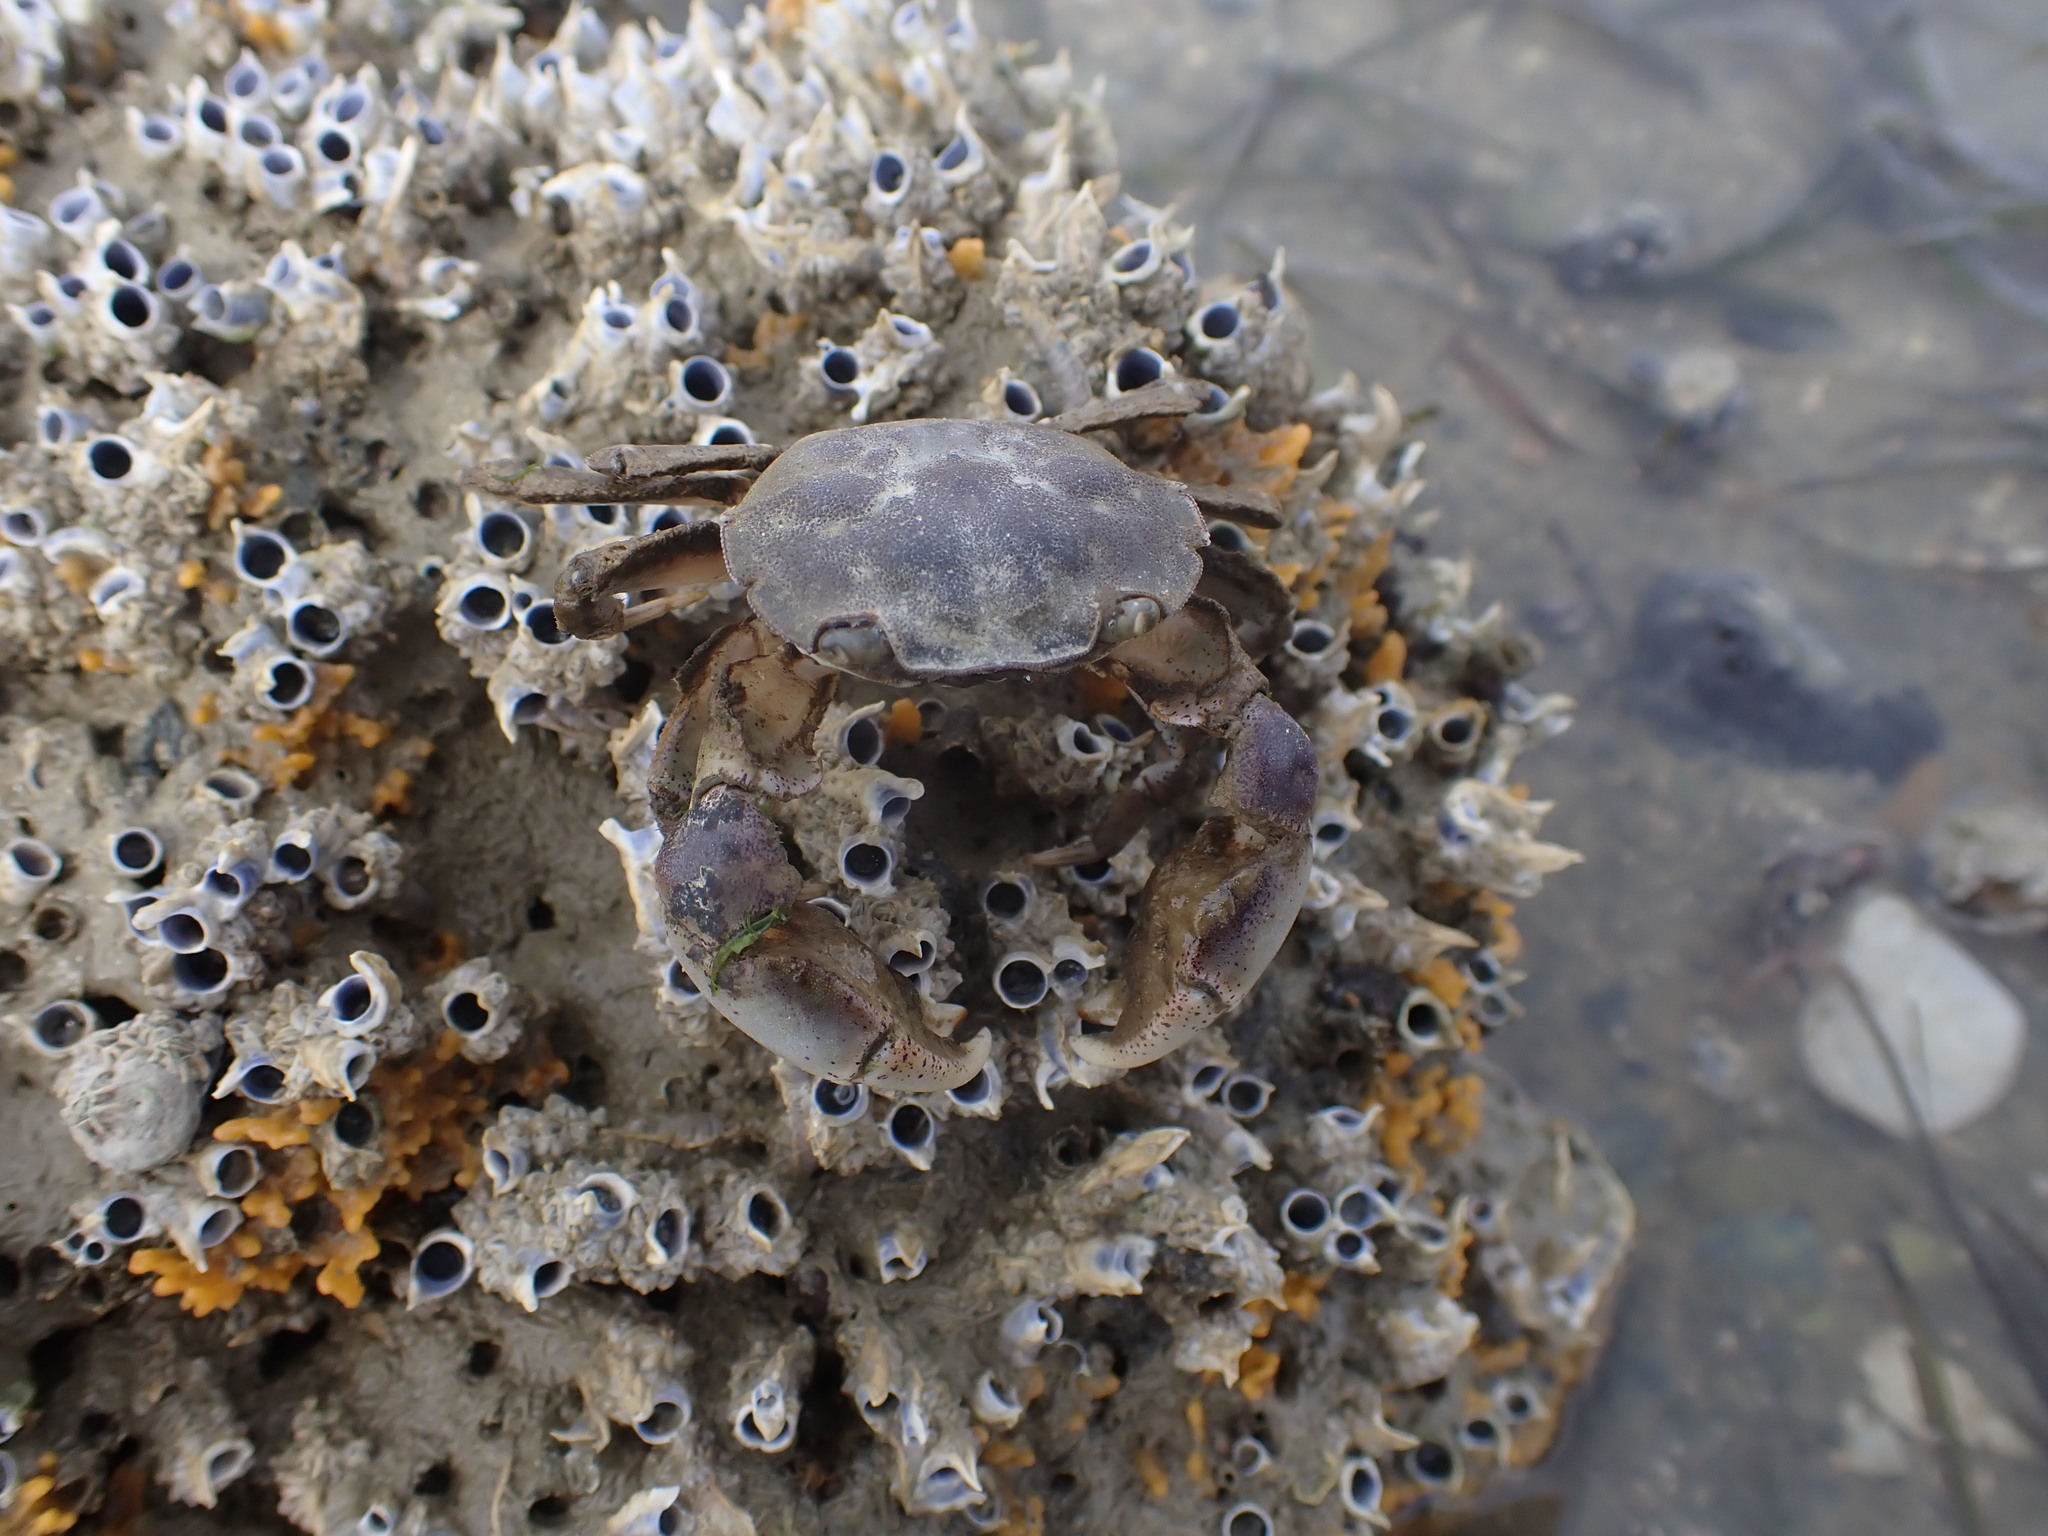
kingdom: Animalia
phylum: Arthropoda
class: Malacostraca
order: Decapoda
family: Varunidae
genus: Hemigrapsus
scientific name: Hemigrapsus crenulatus
